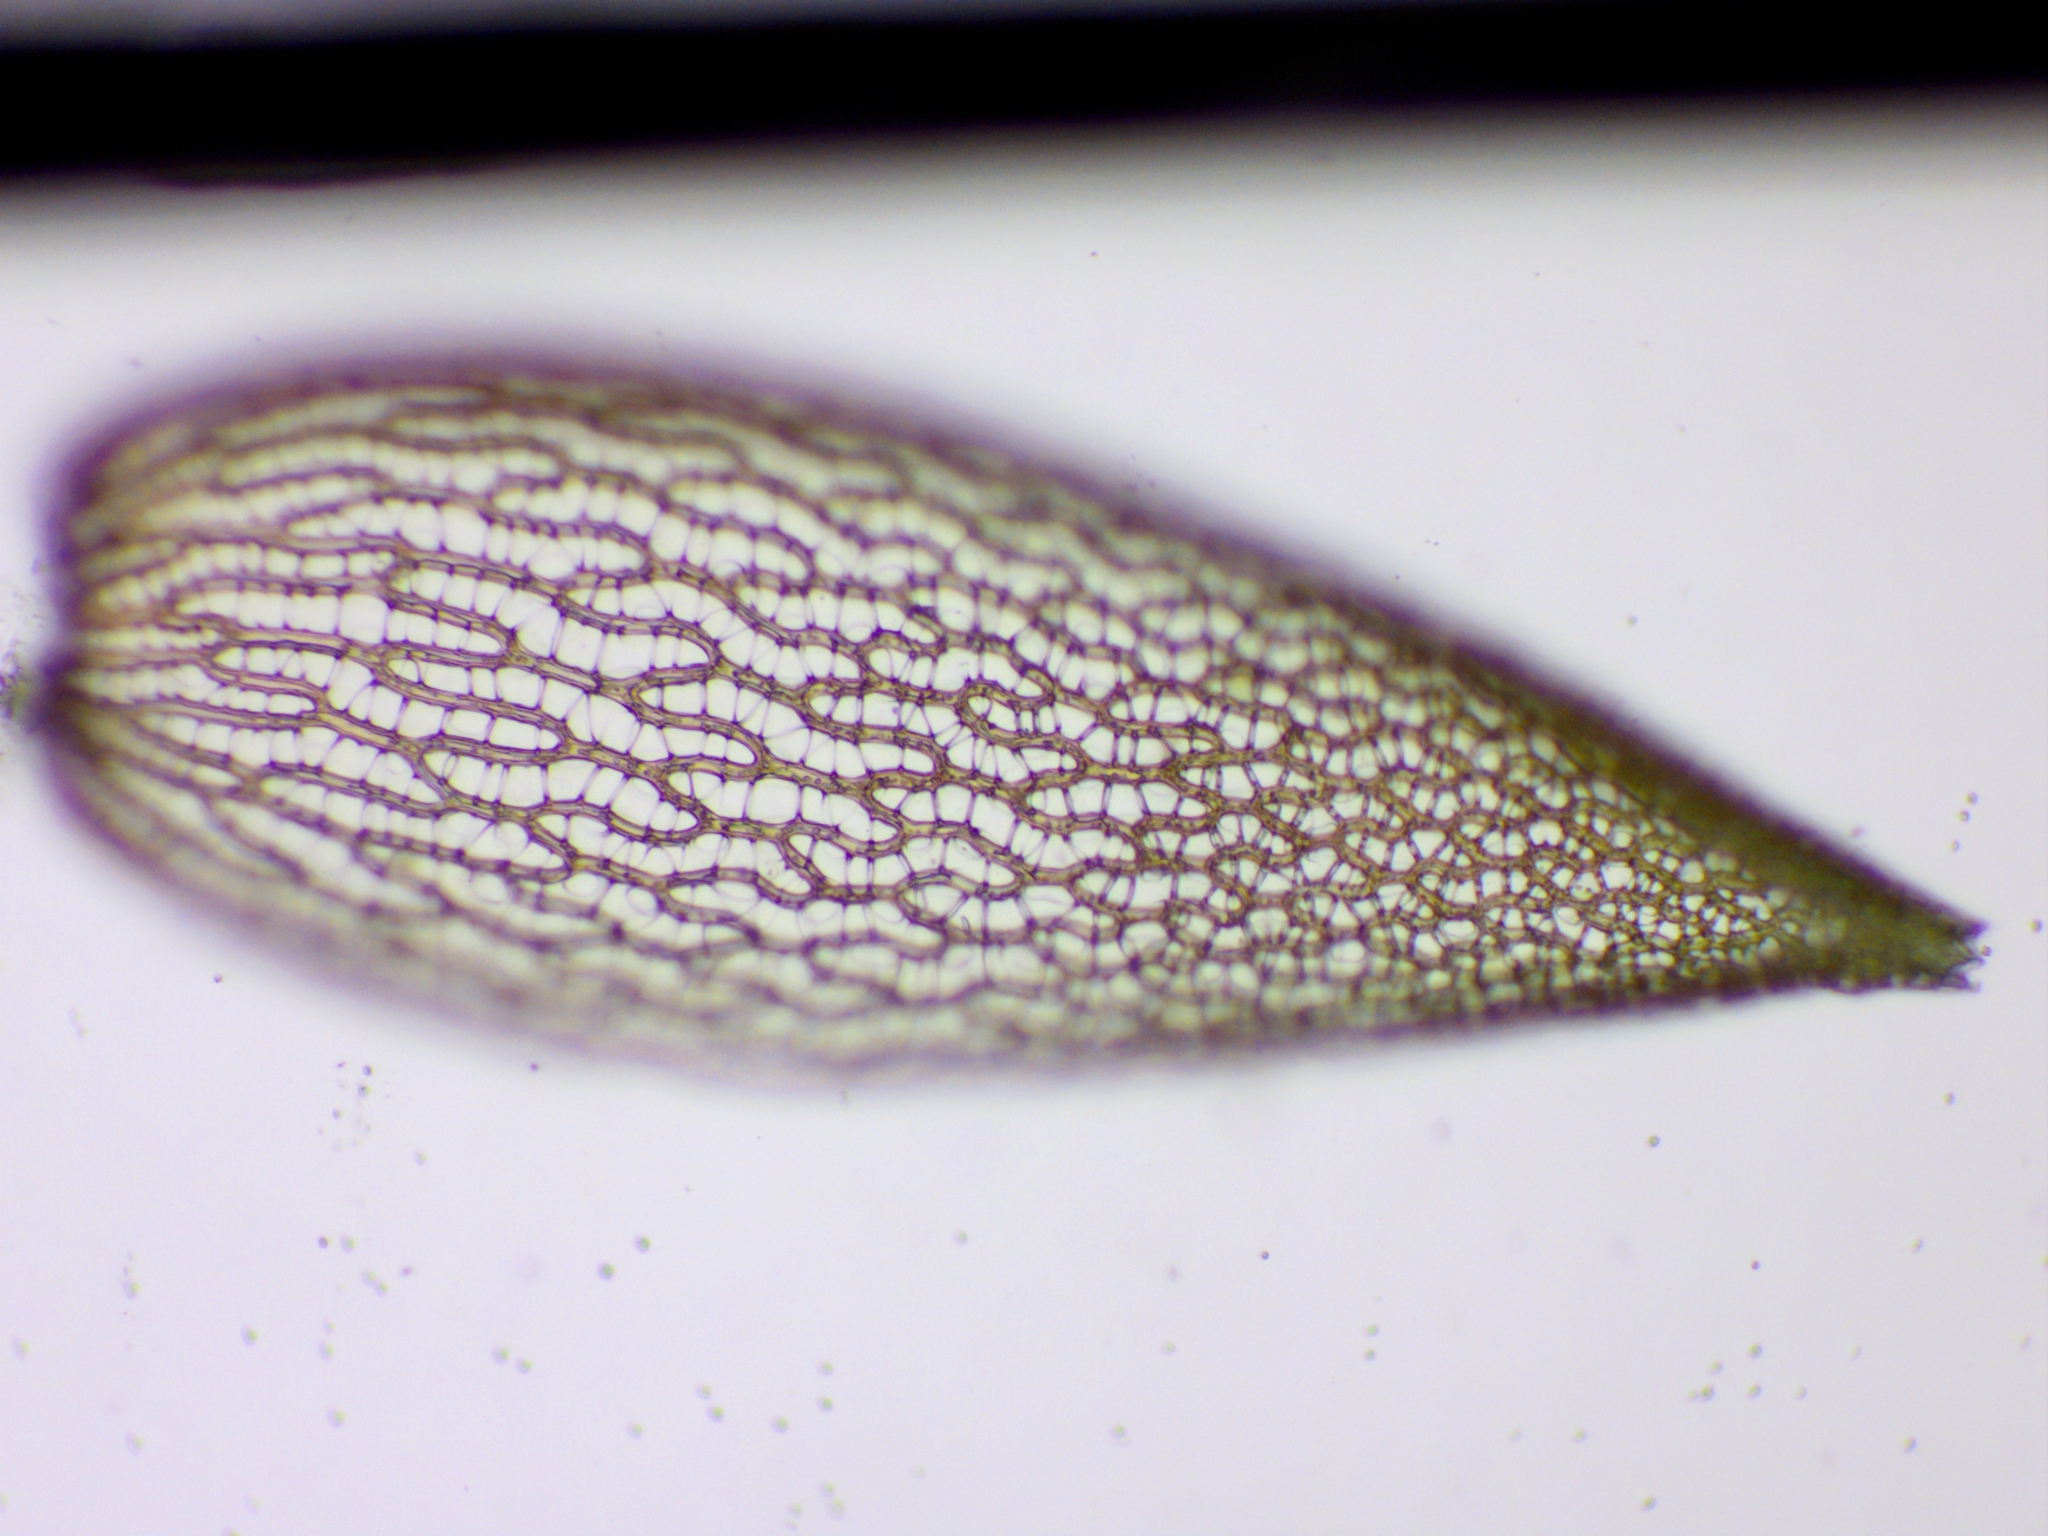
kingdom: Plantae
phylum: Bryophyta
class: Sphagnopsida
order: Sphagnales
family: Sphagnaceae
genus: Sphagnum
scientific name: Sphagnum warnstorfii
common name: Warnstorf's peat moss
